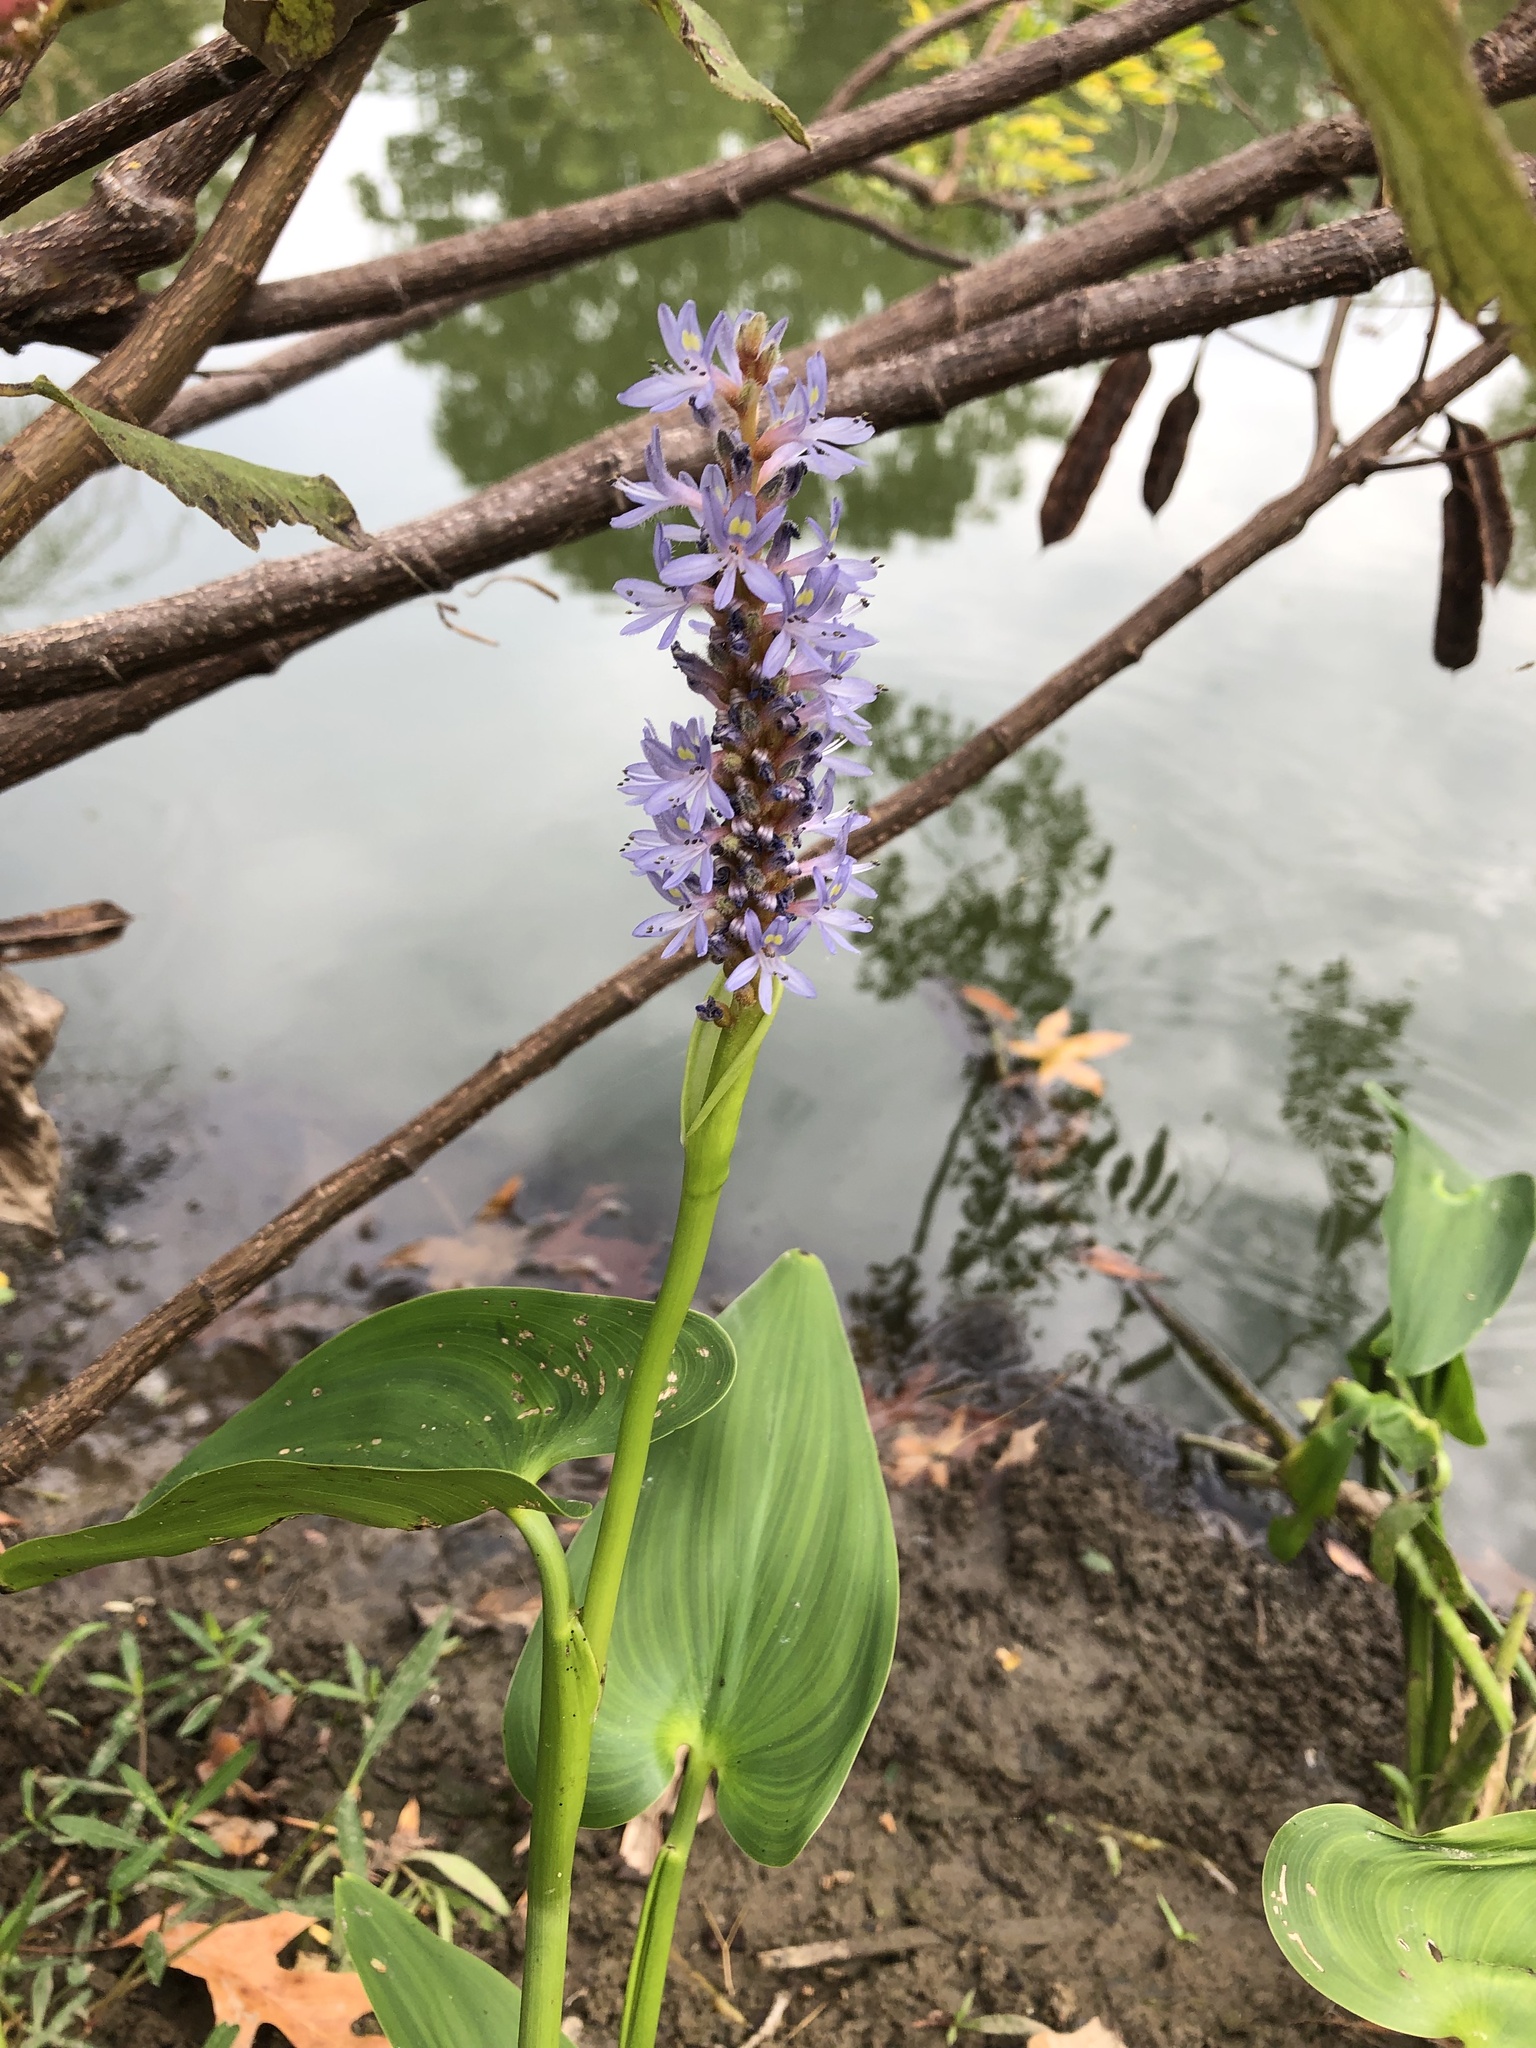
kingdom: Plantae
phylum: Tracheophyta
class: Liliopsida
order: Commelinales
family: Pontederiaceae
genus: Pontederia
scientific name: Pontederia cordata
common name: Pickerelweed
